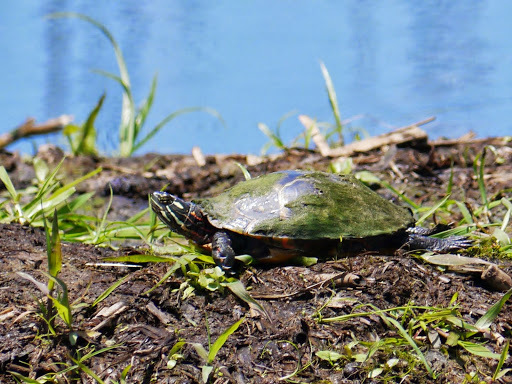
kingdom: Animalia
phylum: Chordata
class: Testudines
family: Emydidae
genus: Chrysemys
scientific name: Chrysemys picta
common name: Painted turtle
